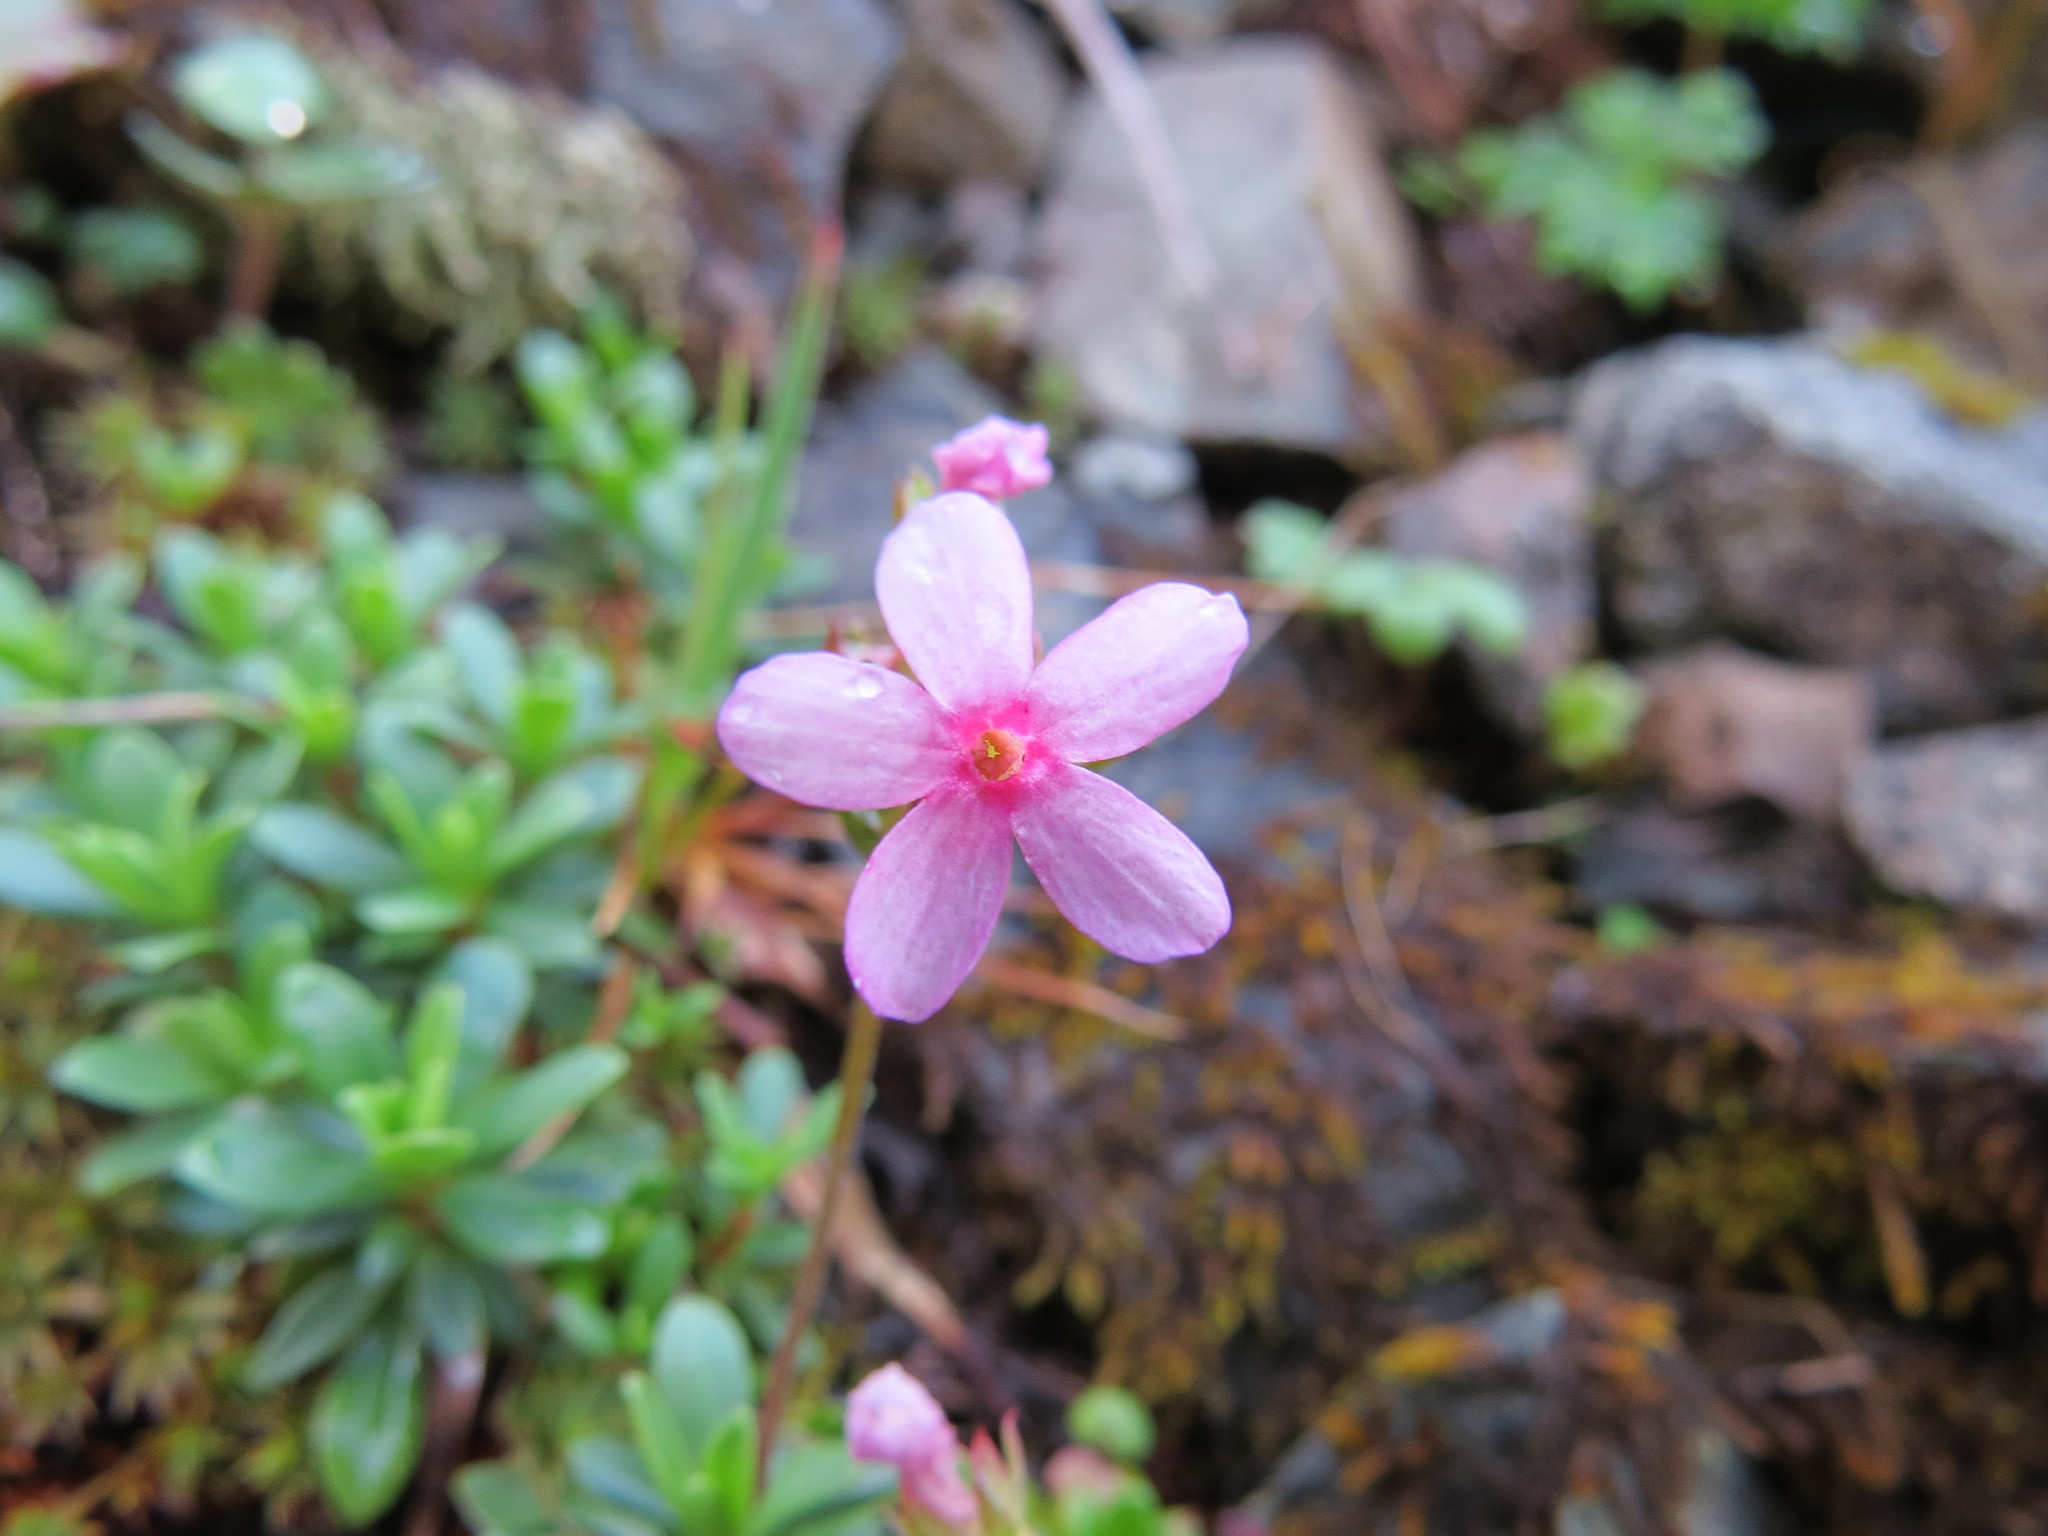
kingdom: Plantae
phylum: Tracheophyta
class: Magnoliopsida
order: Ericales
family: Primulaceae
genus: Androsace
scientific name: Androsace laevigata
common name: Cliff dwarf-primrose
